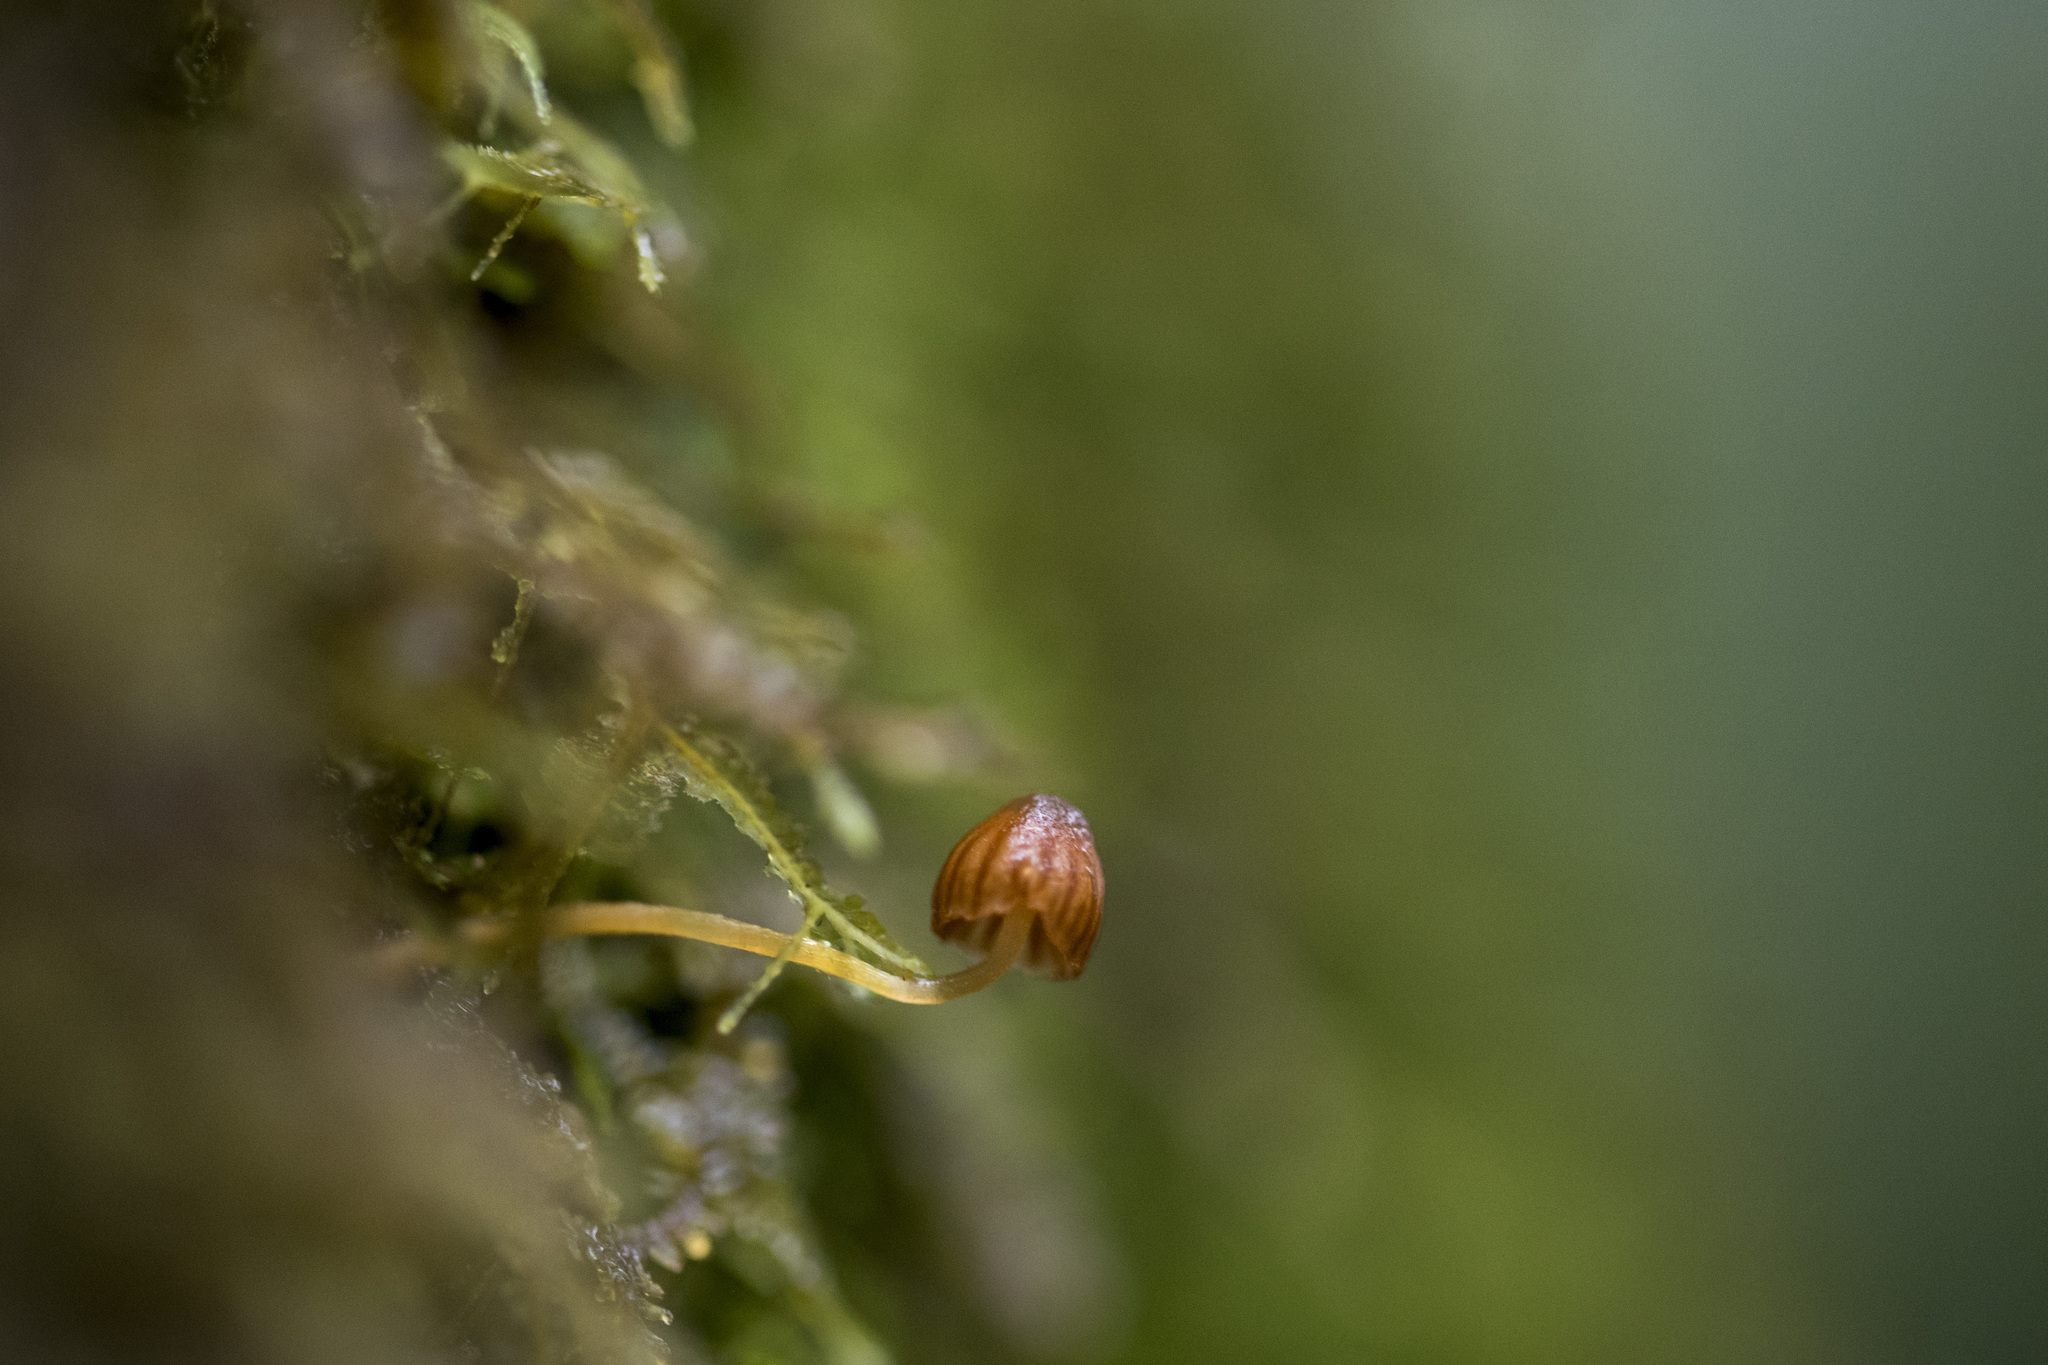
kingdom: Fungi
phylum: Basidiomycota
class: Agaricomycetes
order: Agaricales
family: Hymenogastraceae
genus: Galerina
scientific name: Galerina subcerina
